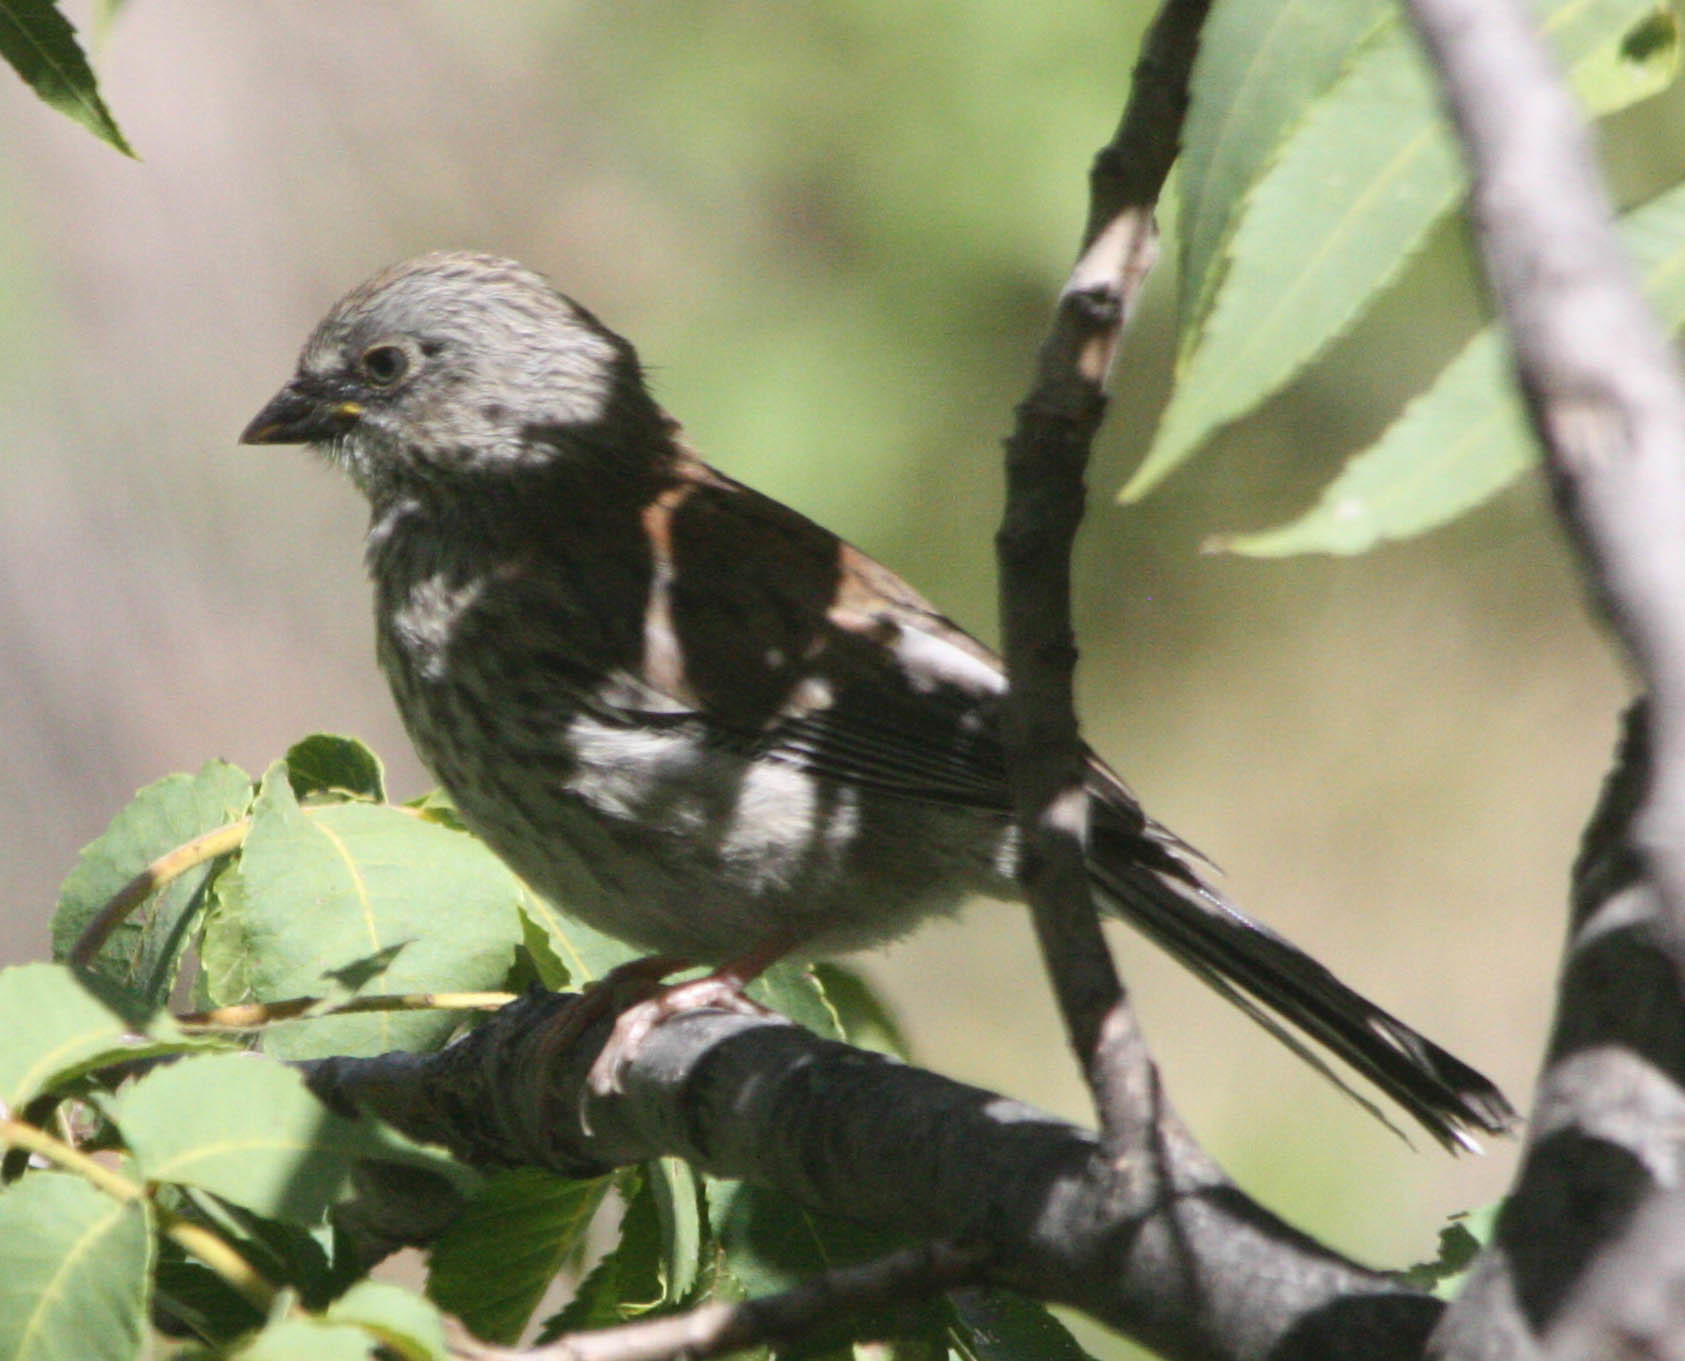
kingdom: Animalia
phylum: Chordata
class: Aves
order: Passeriformes
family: Passerellidae
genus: Junco
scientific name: Junco phaeonotus
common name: Yellow-eyed junco
